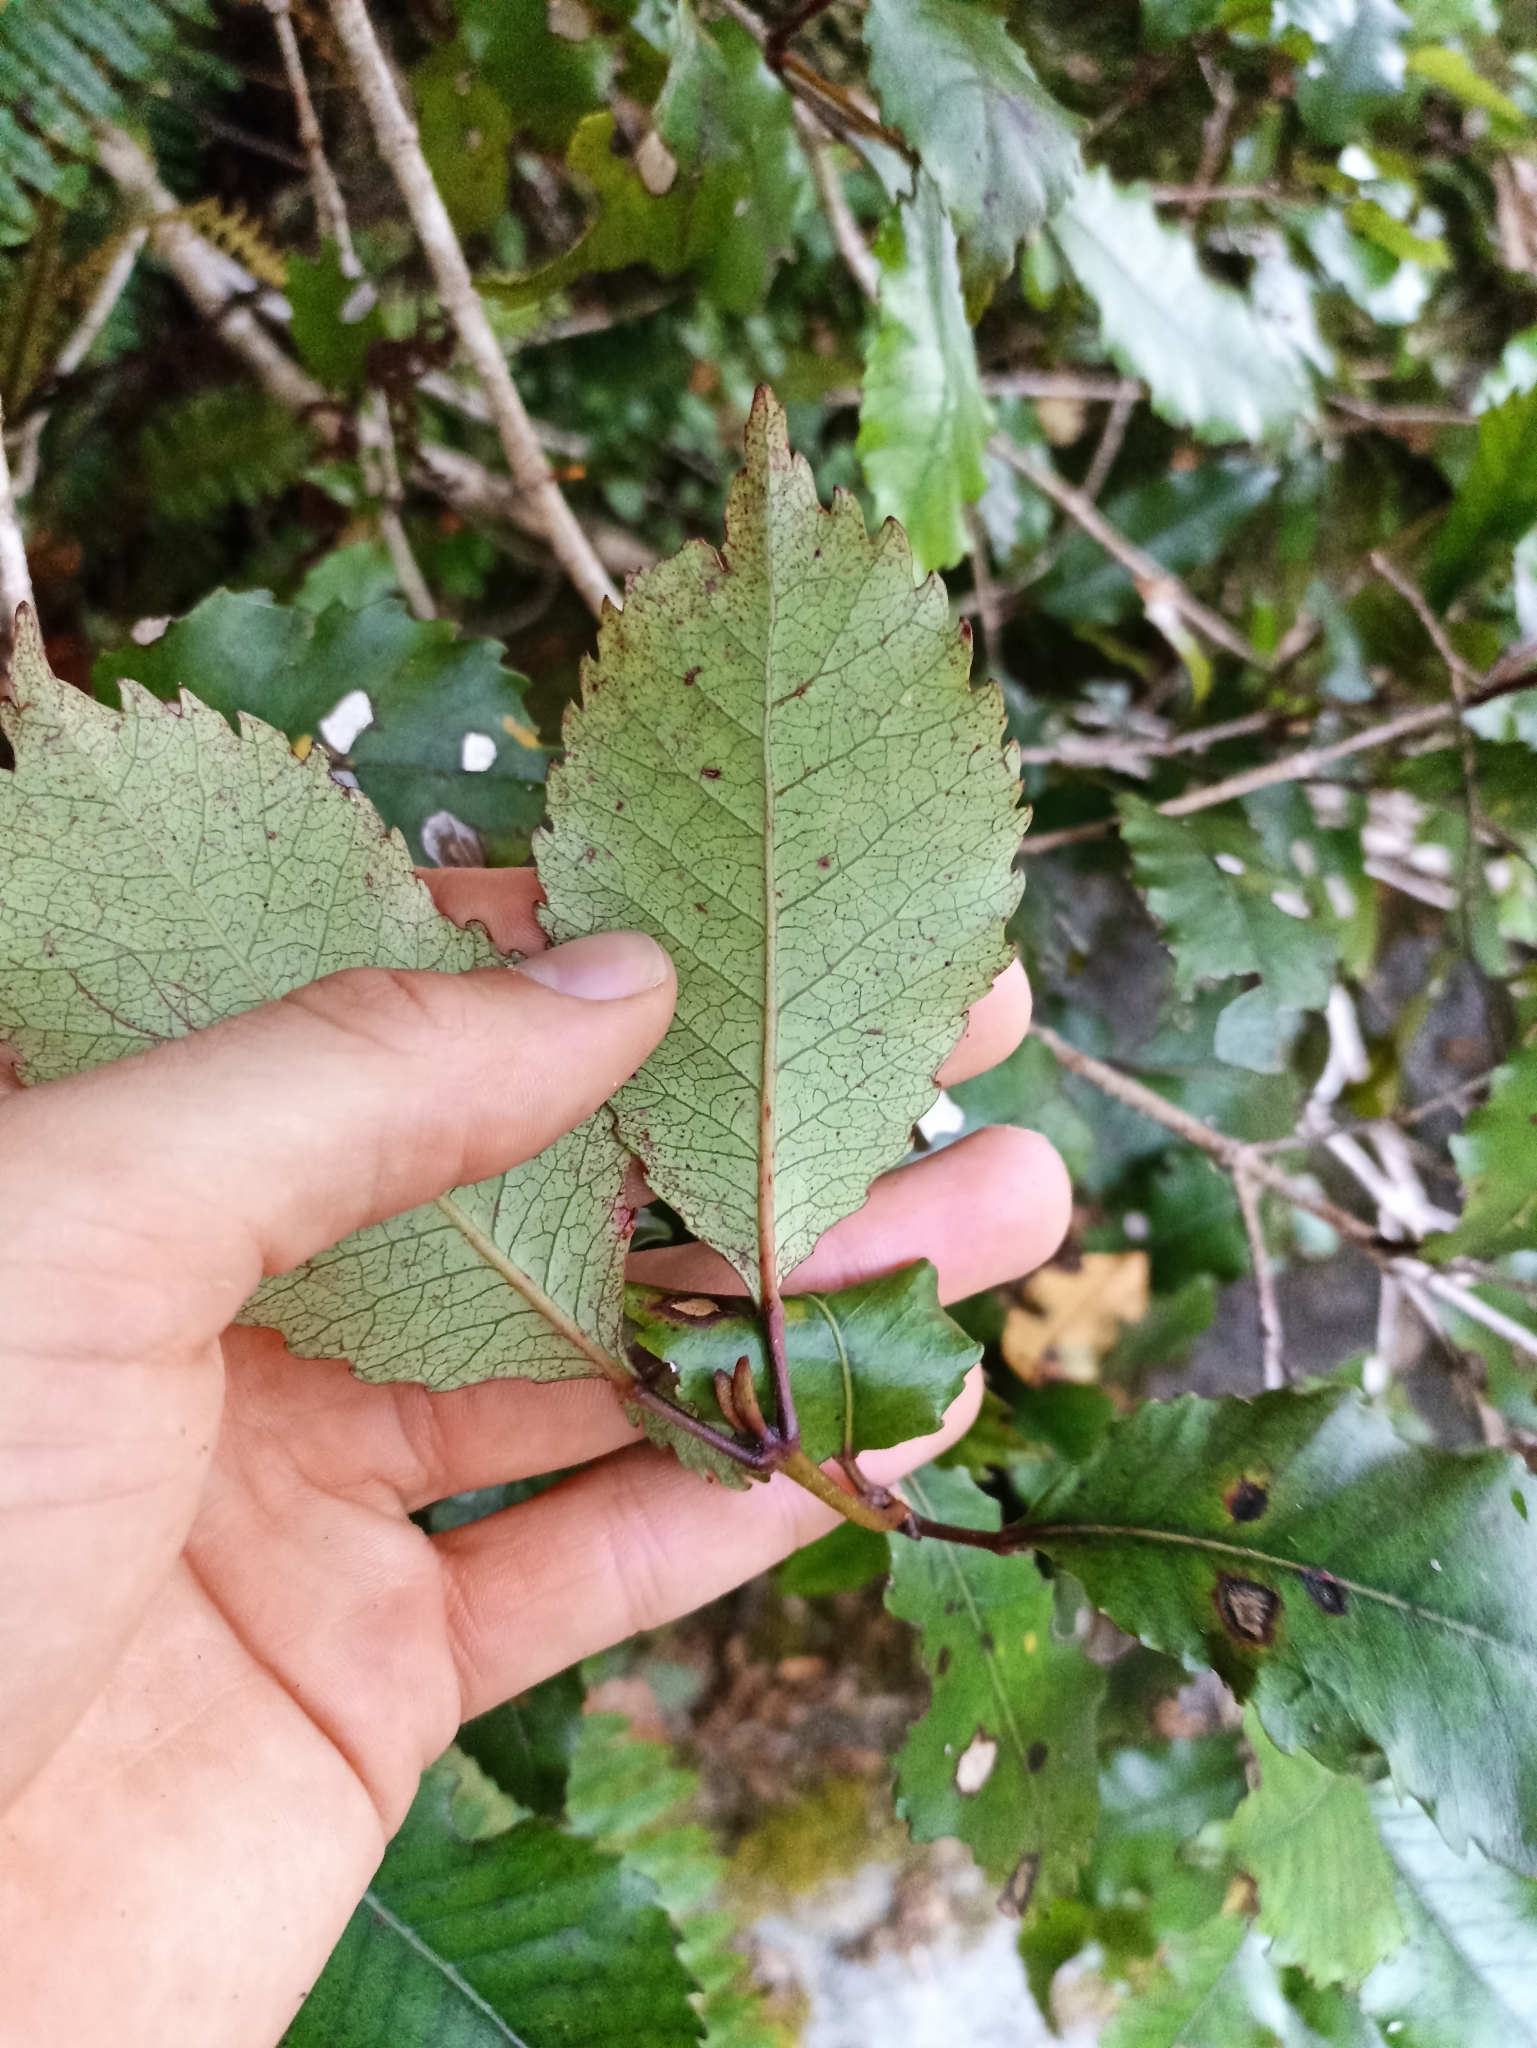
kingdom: Plantae
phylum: Tracheophyta
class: Magnoliopsida
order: Oxalidales
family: Cunoniaceae
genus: Pterophylla
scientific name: Pterophylla racemosa
